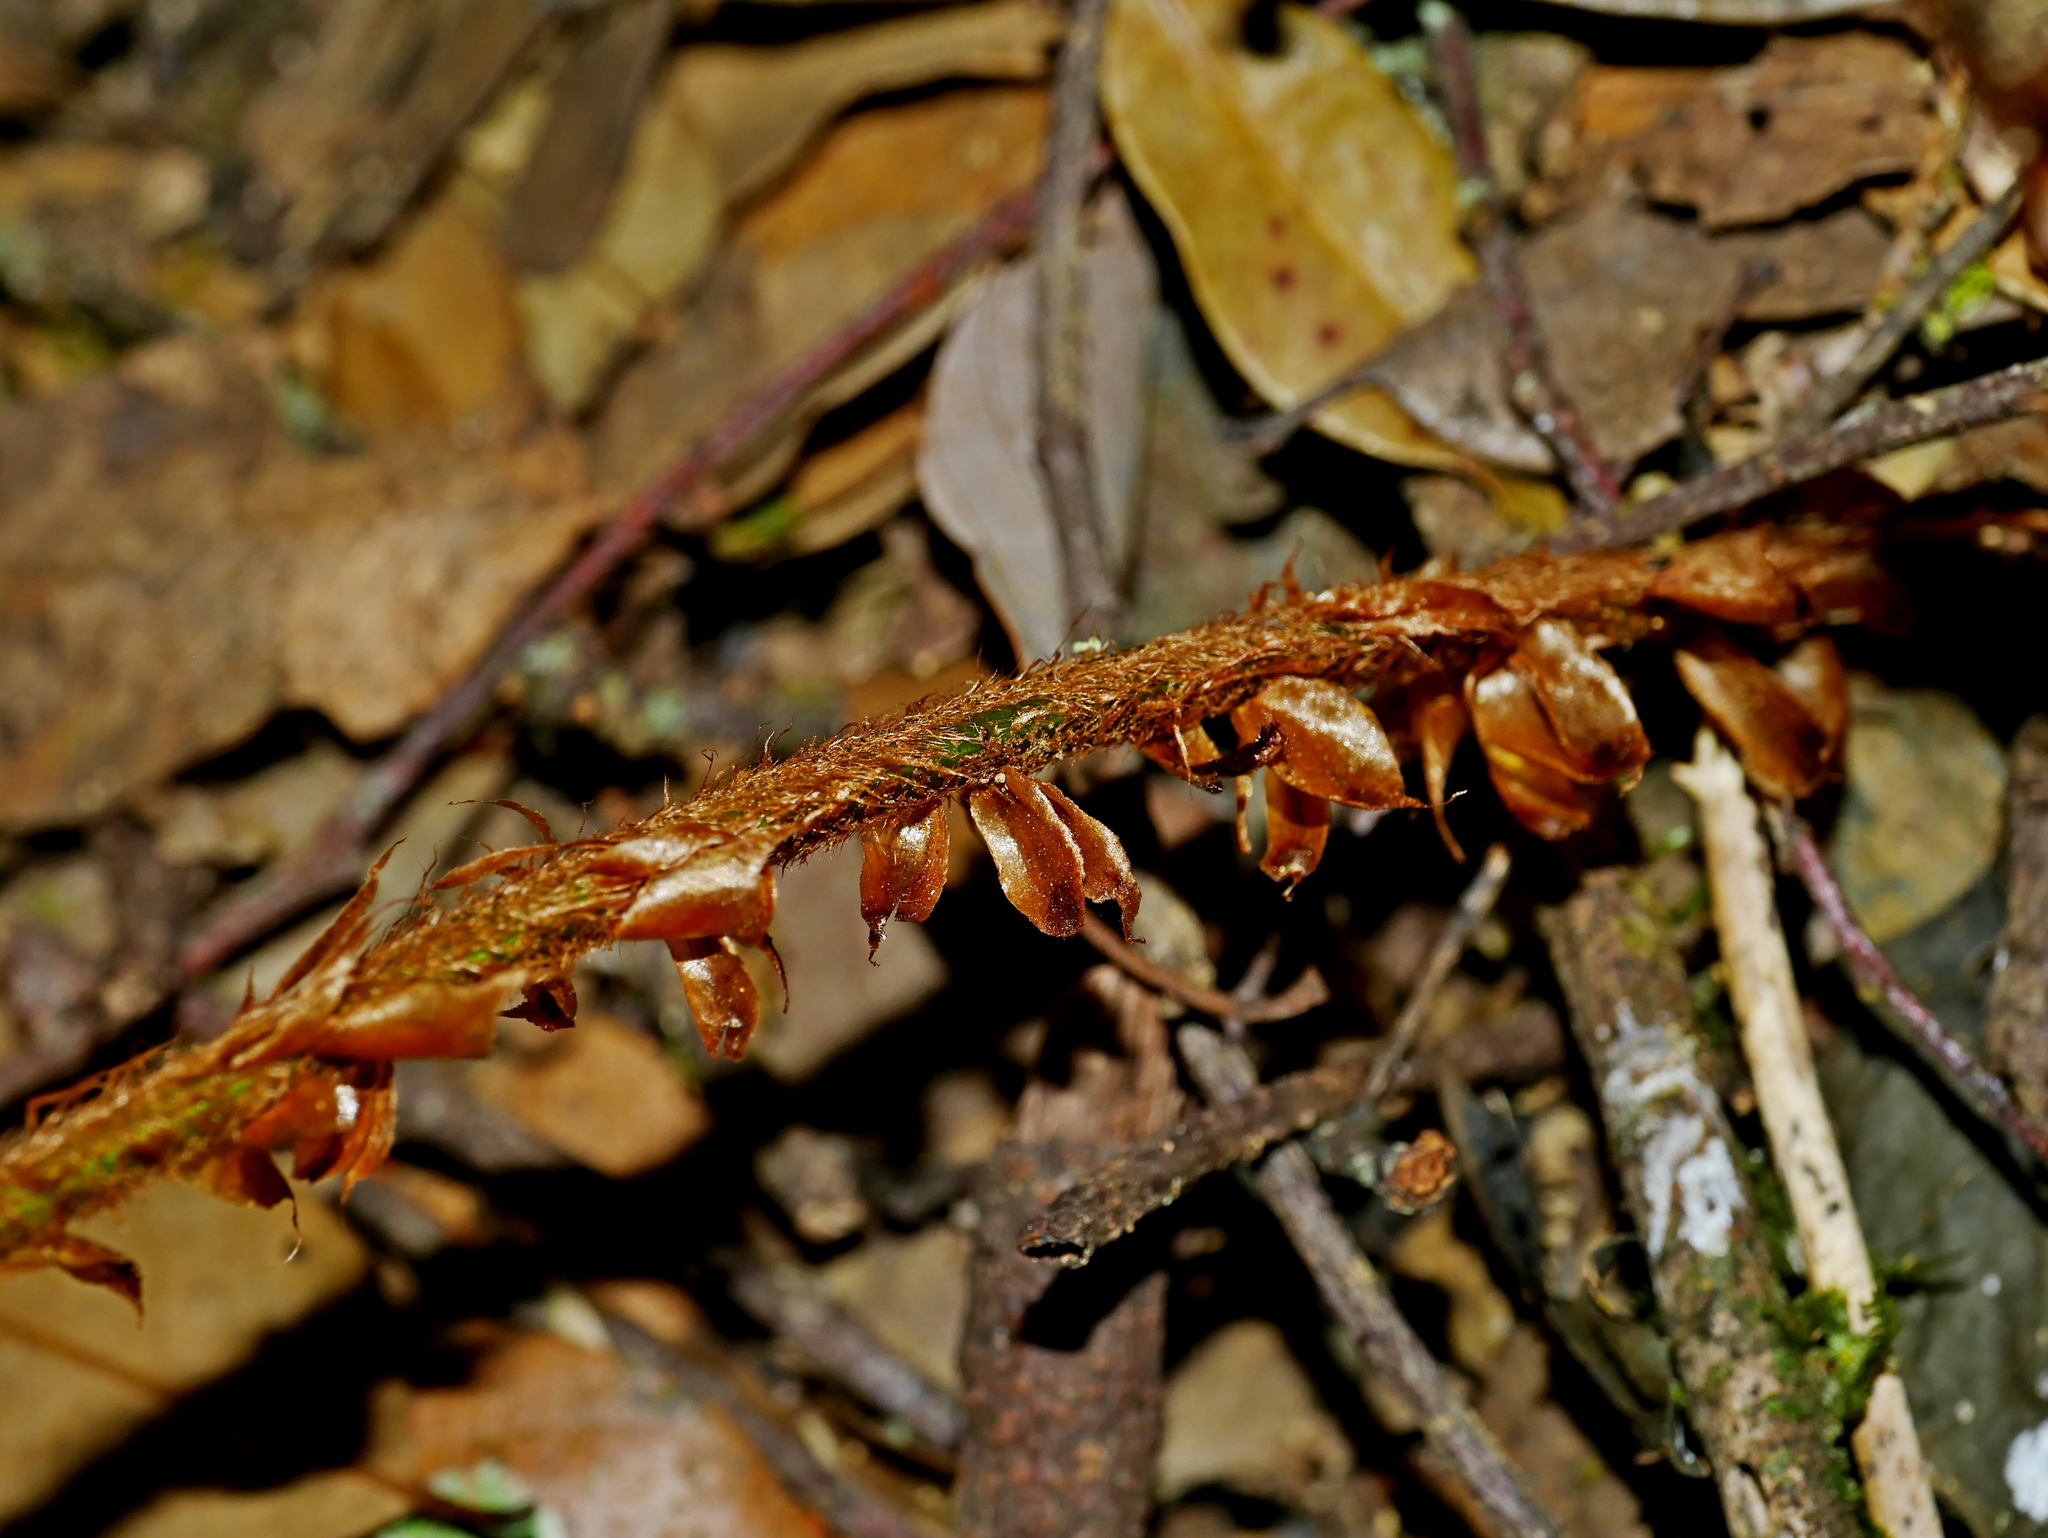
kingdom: Plantae
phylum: Tracheophyta
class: Polypodiopsida
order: Polypodiales
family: Dryopteridaceae
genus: Polystichum
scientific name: Polystichum parvipinnulum
